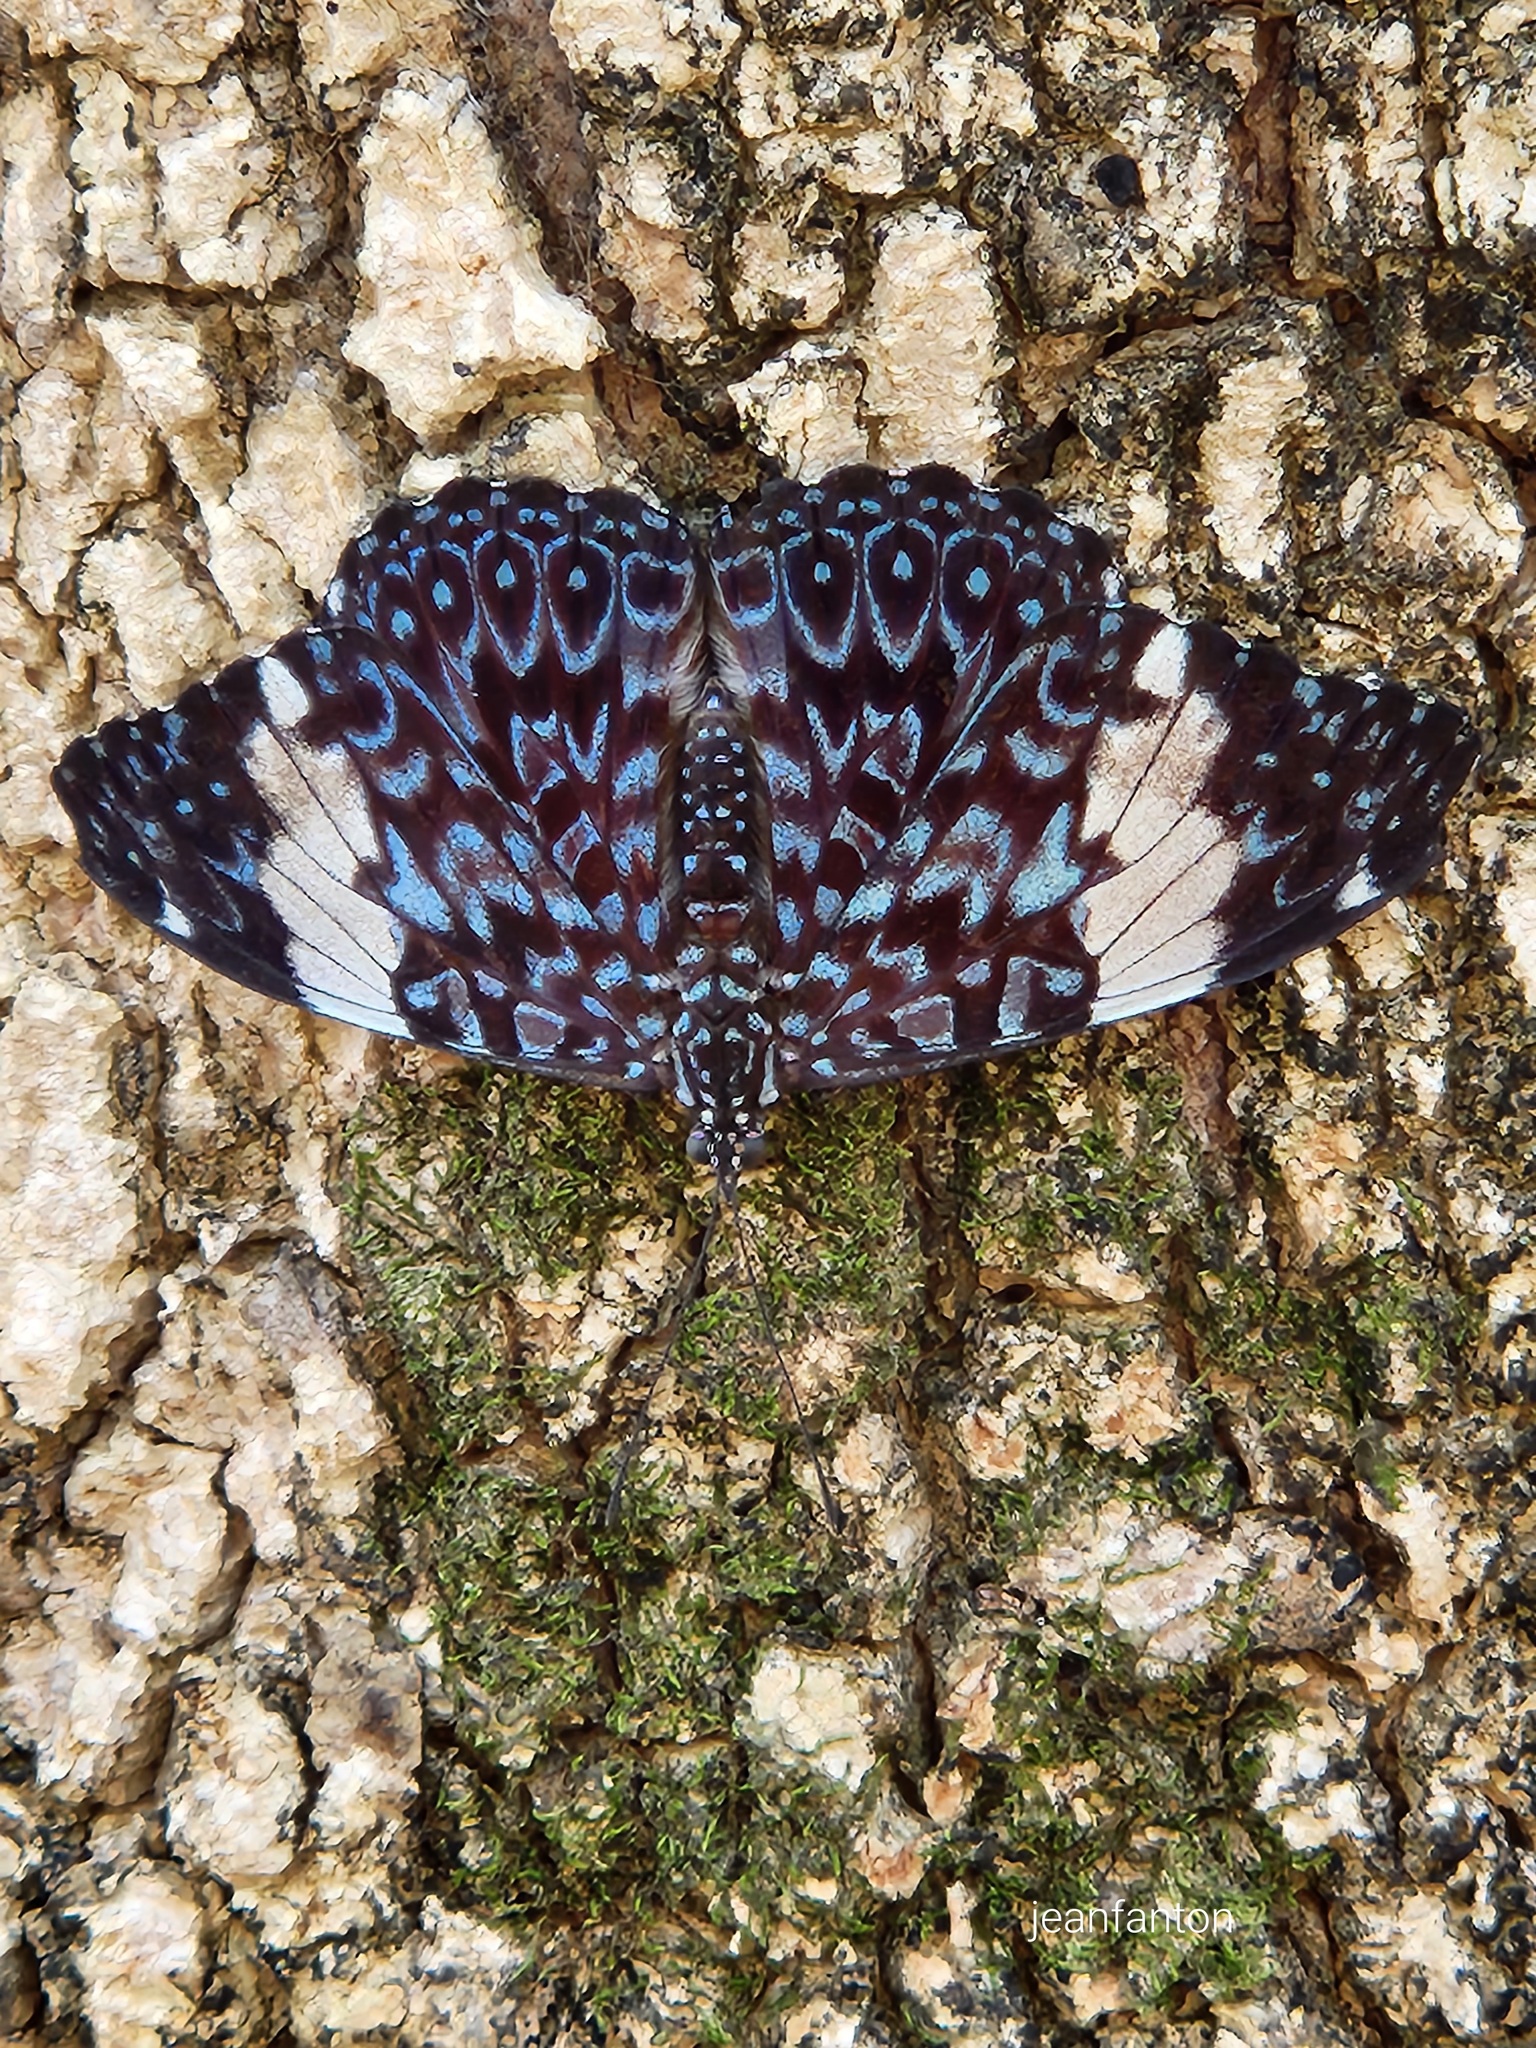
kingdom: Animalia
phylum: Arthropoda
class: Insecta
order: Lepidoptera
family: Nymphalidae
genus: Hamadryas
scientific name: Hamadryas amphinome
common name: Red cracker
